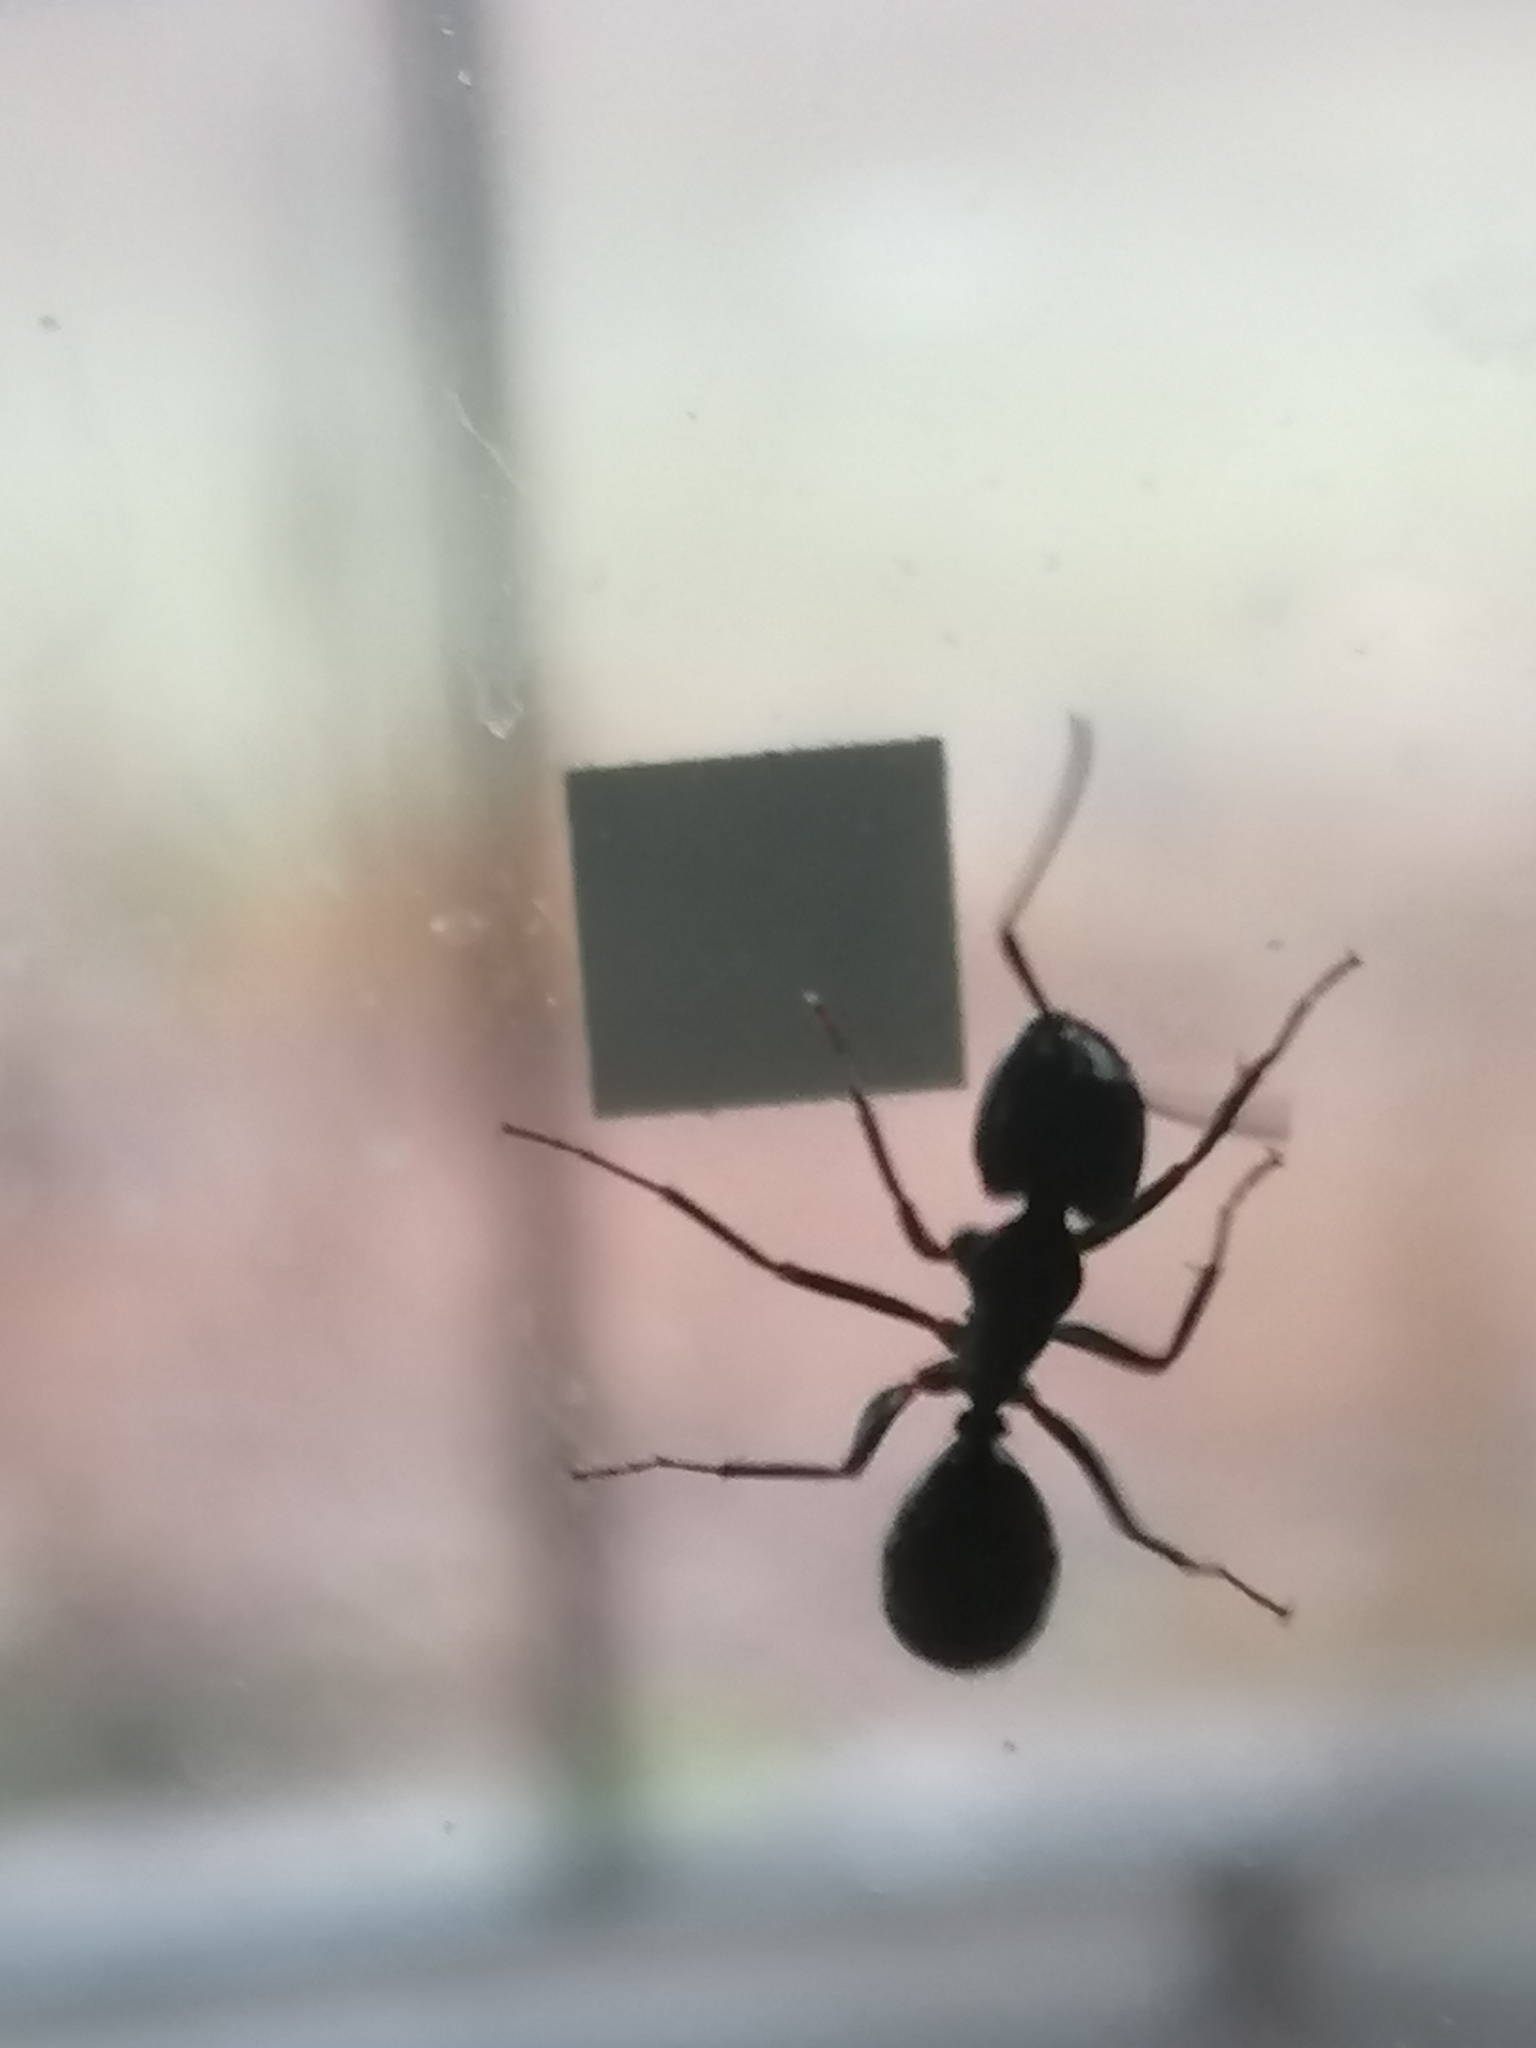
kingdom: Animalia
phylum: Arthropoda
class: Insecta
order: Hymenoptera
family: Formicidae
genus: Camponotus
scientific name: Camponotus pennsylvanicus
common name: Black carpenter ant
